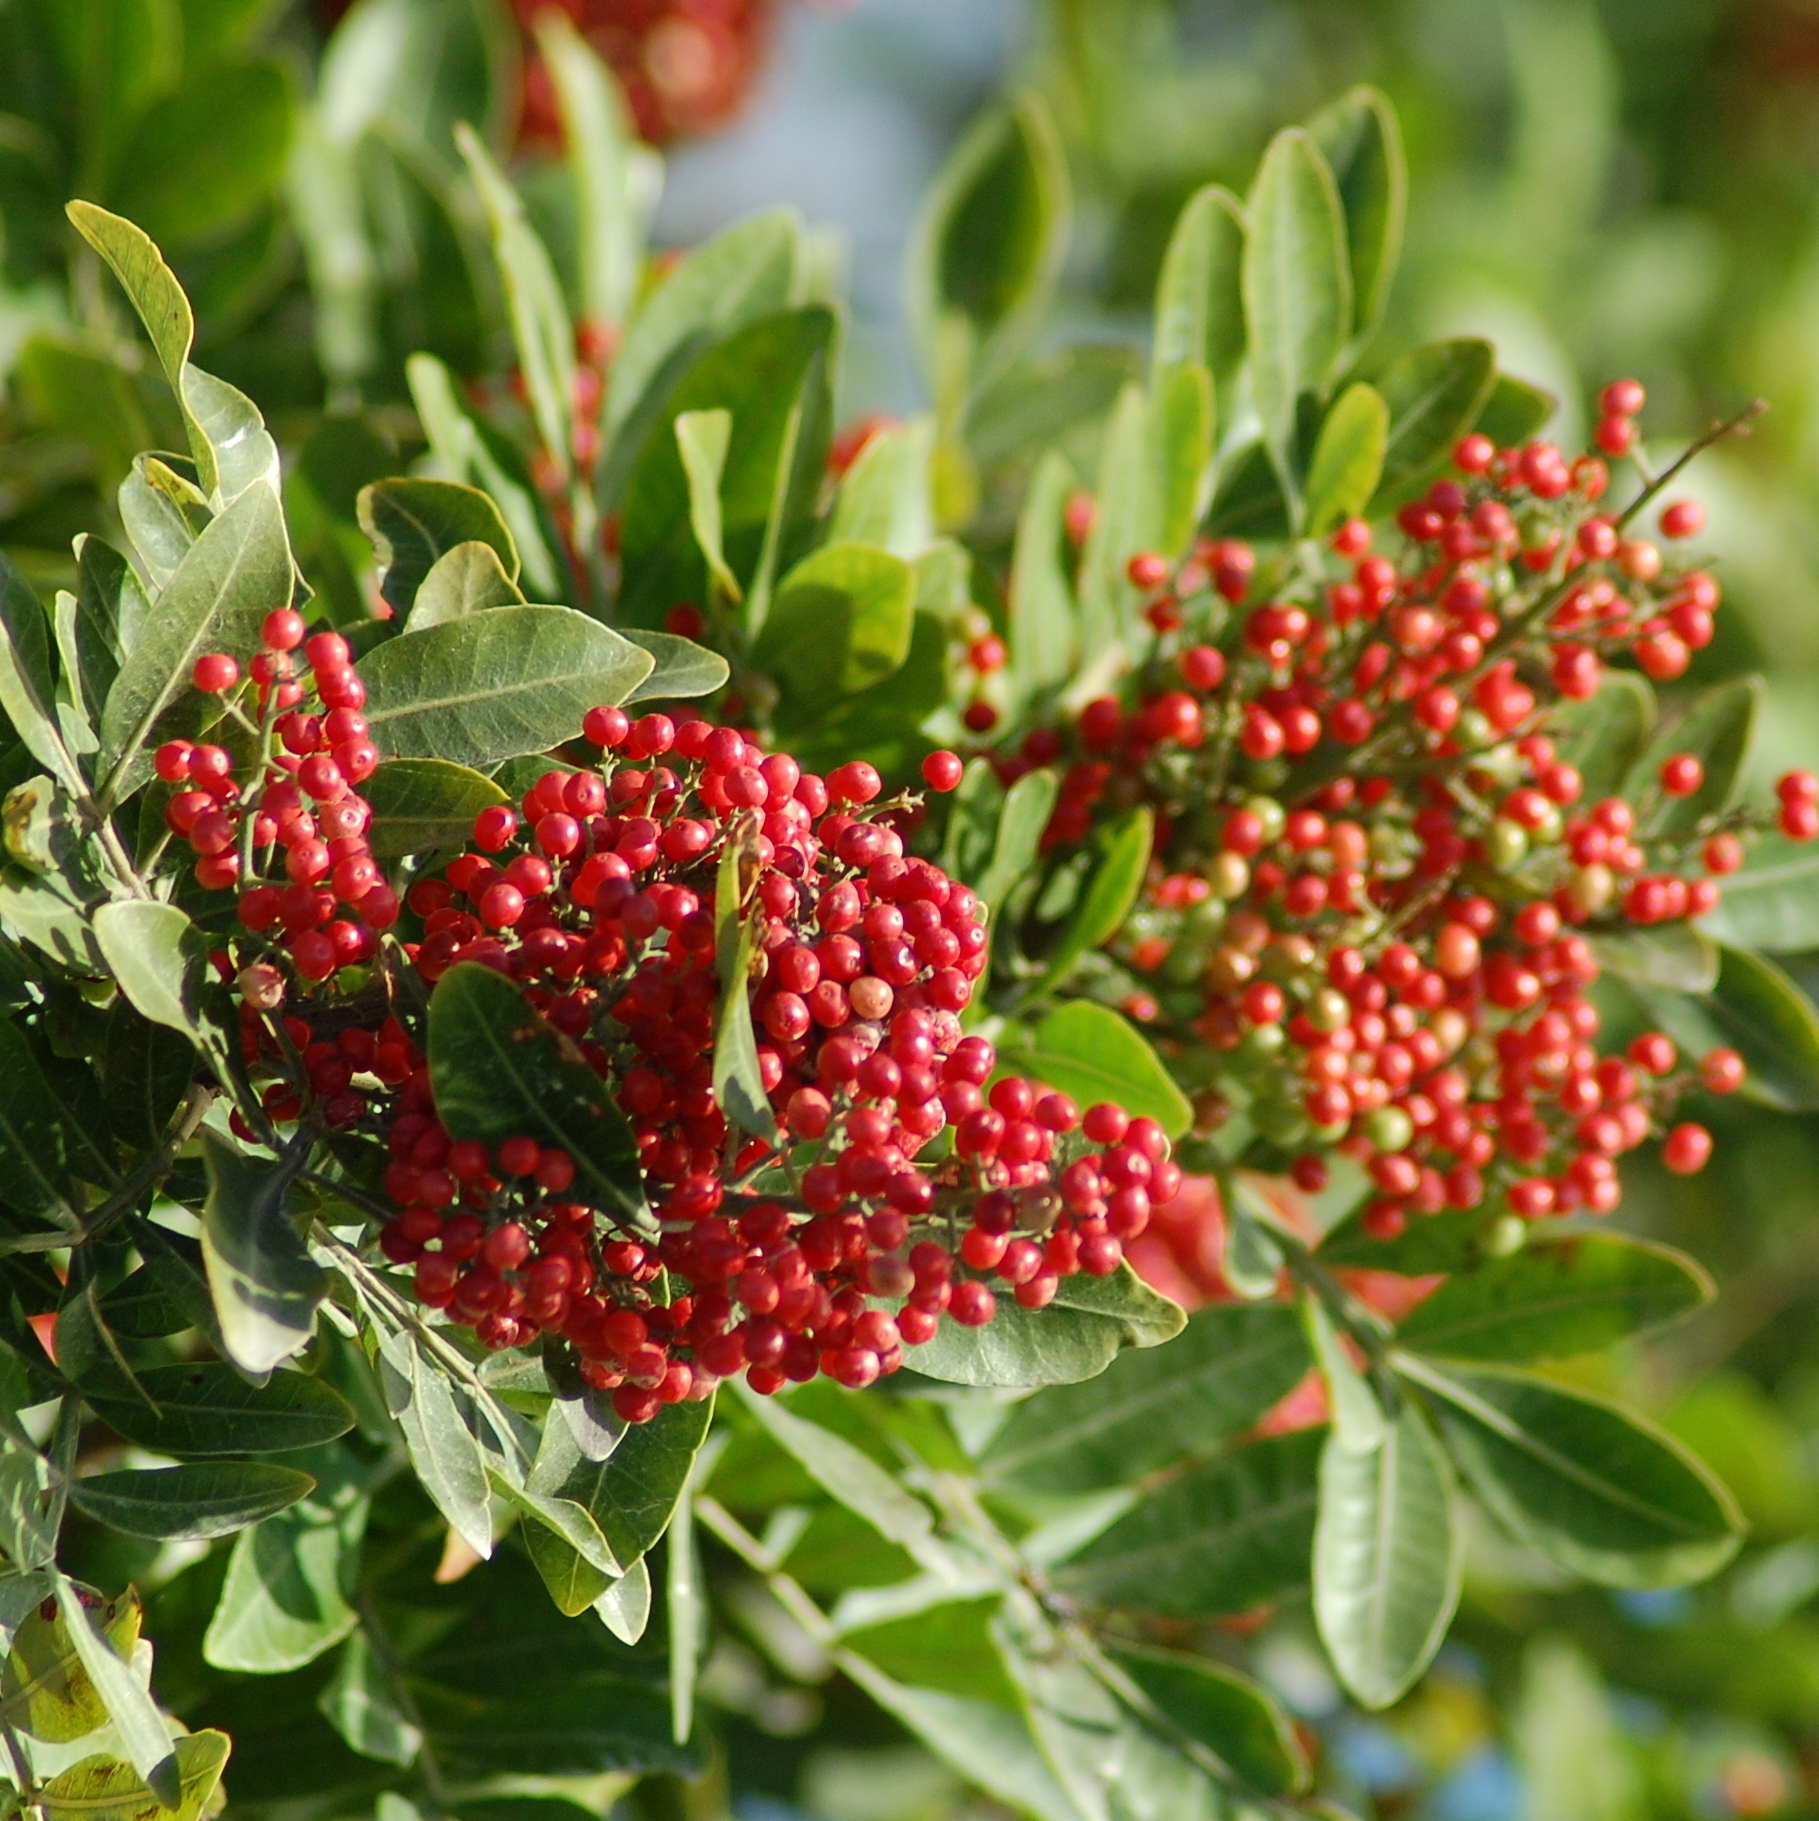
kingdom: Plantae
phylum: Tracheophyta
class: Magnoliopsida
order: Sapindales
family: Anacardiaceae
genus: Schinus
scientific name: Schinus terebinthifolia
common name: Brazilian peppertree
